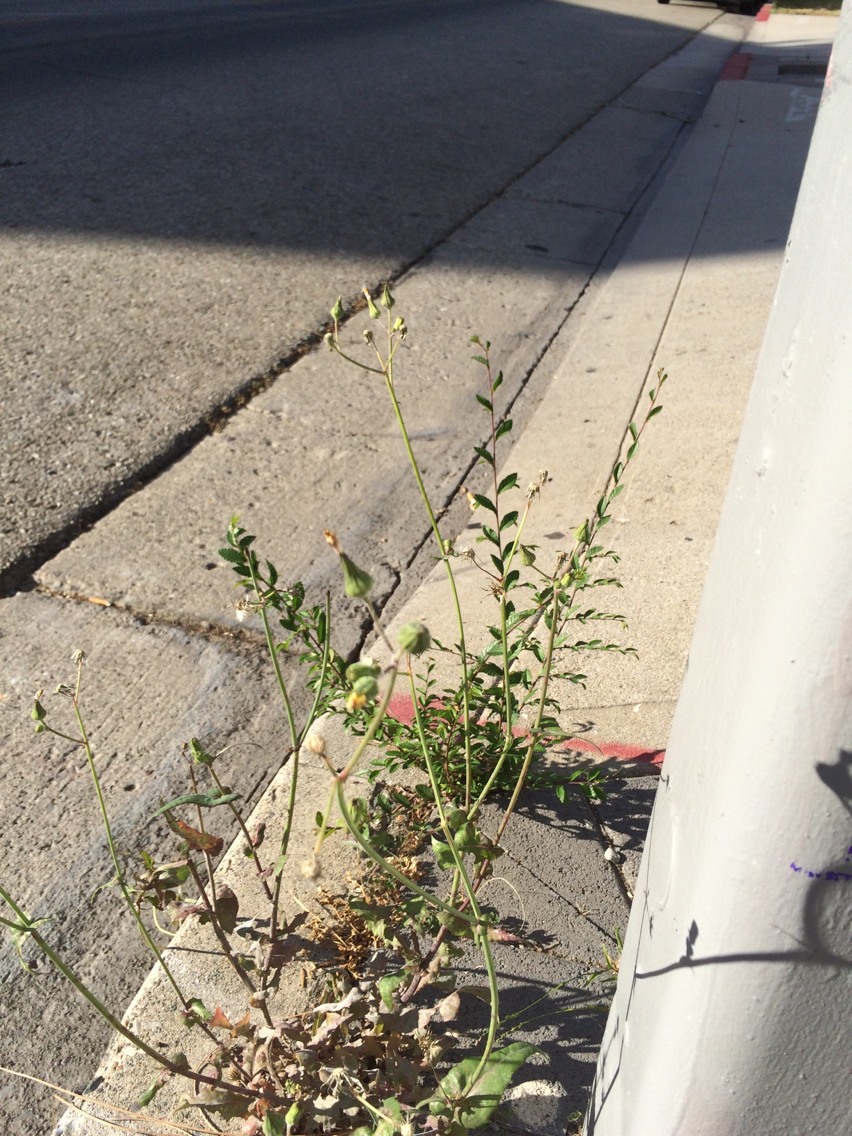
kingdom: Plantae
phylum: Tracheophyta
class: Magnoliopsida
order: Asterales
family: Asteraceae
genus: Sonchus
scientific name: Sonchus oleraceus
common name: Common sowthistle
